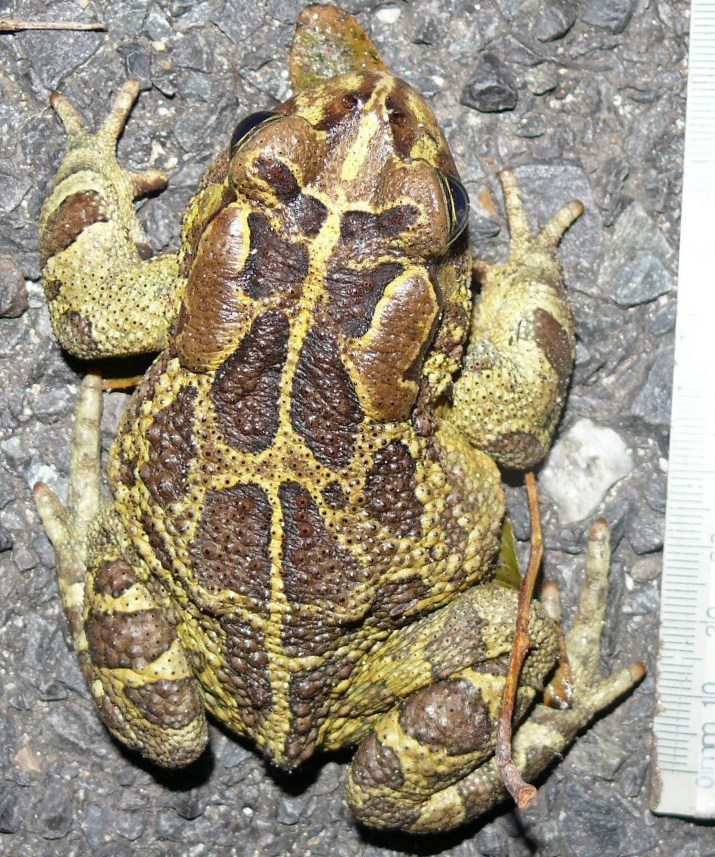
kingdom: Animalia
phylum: Chordata
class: Amphibia
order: Anura
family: Bufonidae
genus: Sclerophrys
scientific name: Sclerophrys pantherina
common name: Panther toad
